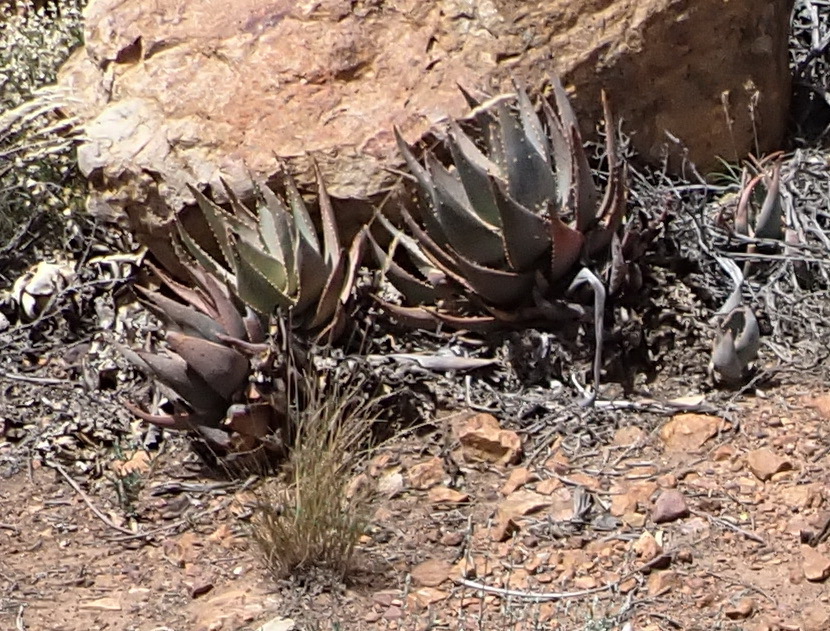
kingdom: Plantae
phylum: Tracheophyta
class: Liliopsida
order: Asparagales
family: Asphodelaceae
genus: Aloe
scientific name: Aloe comptonii
